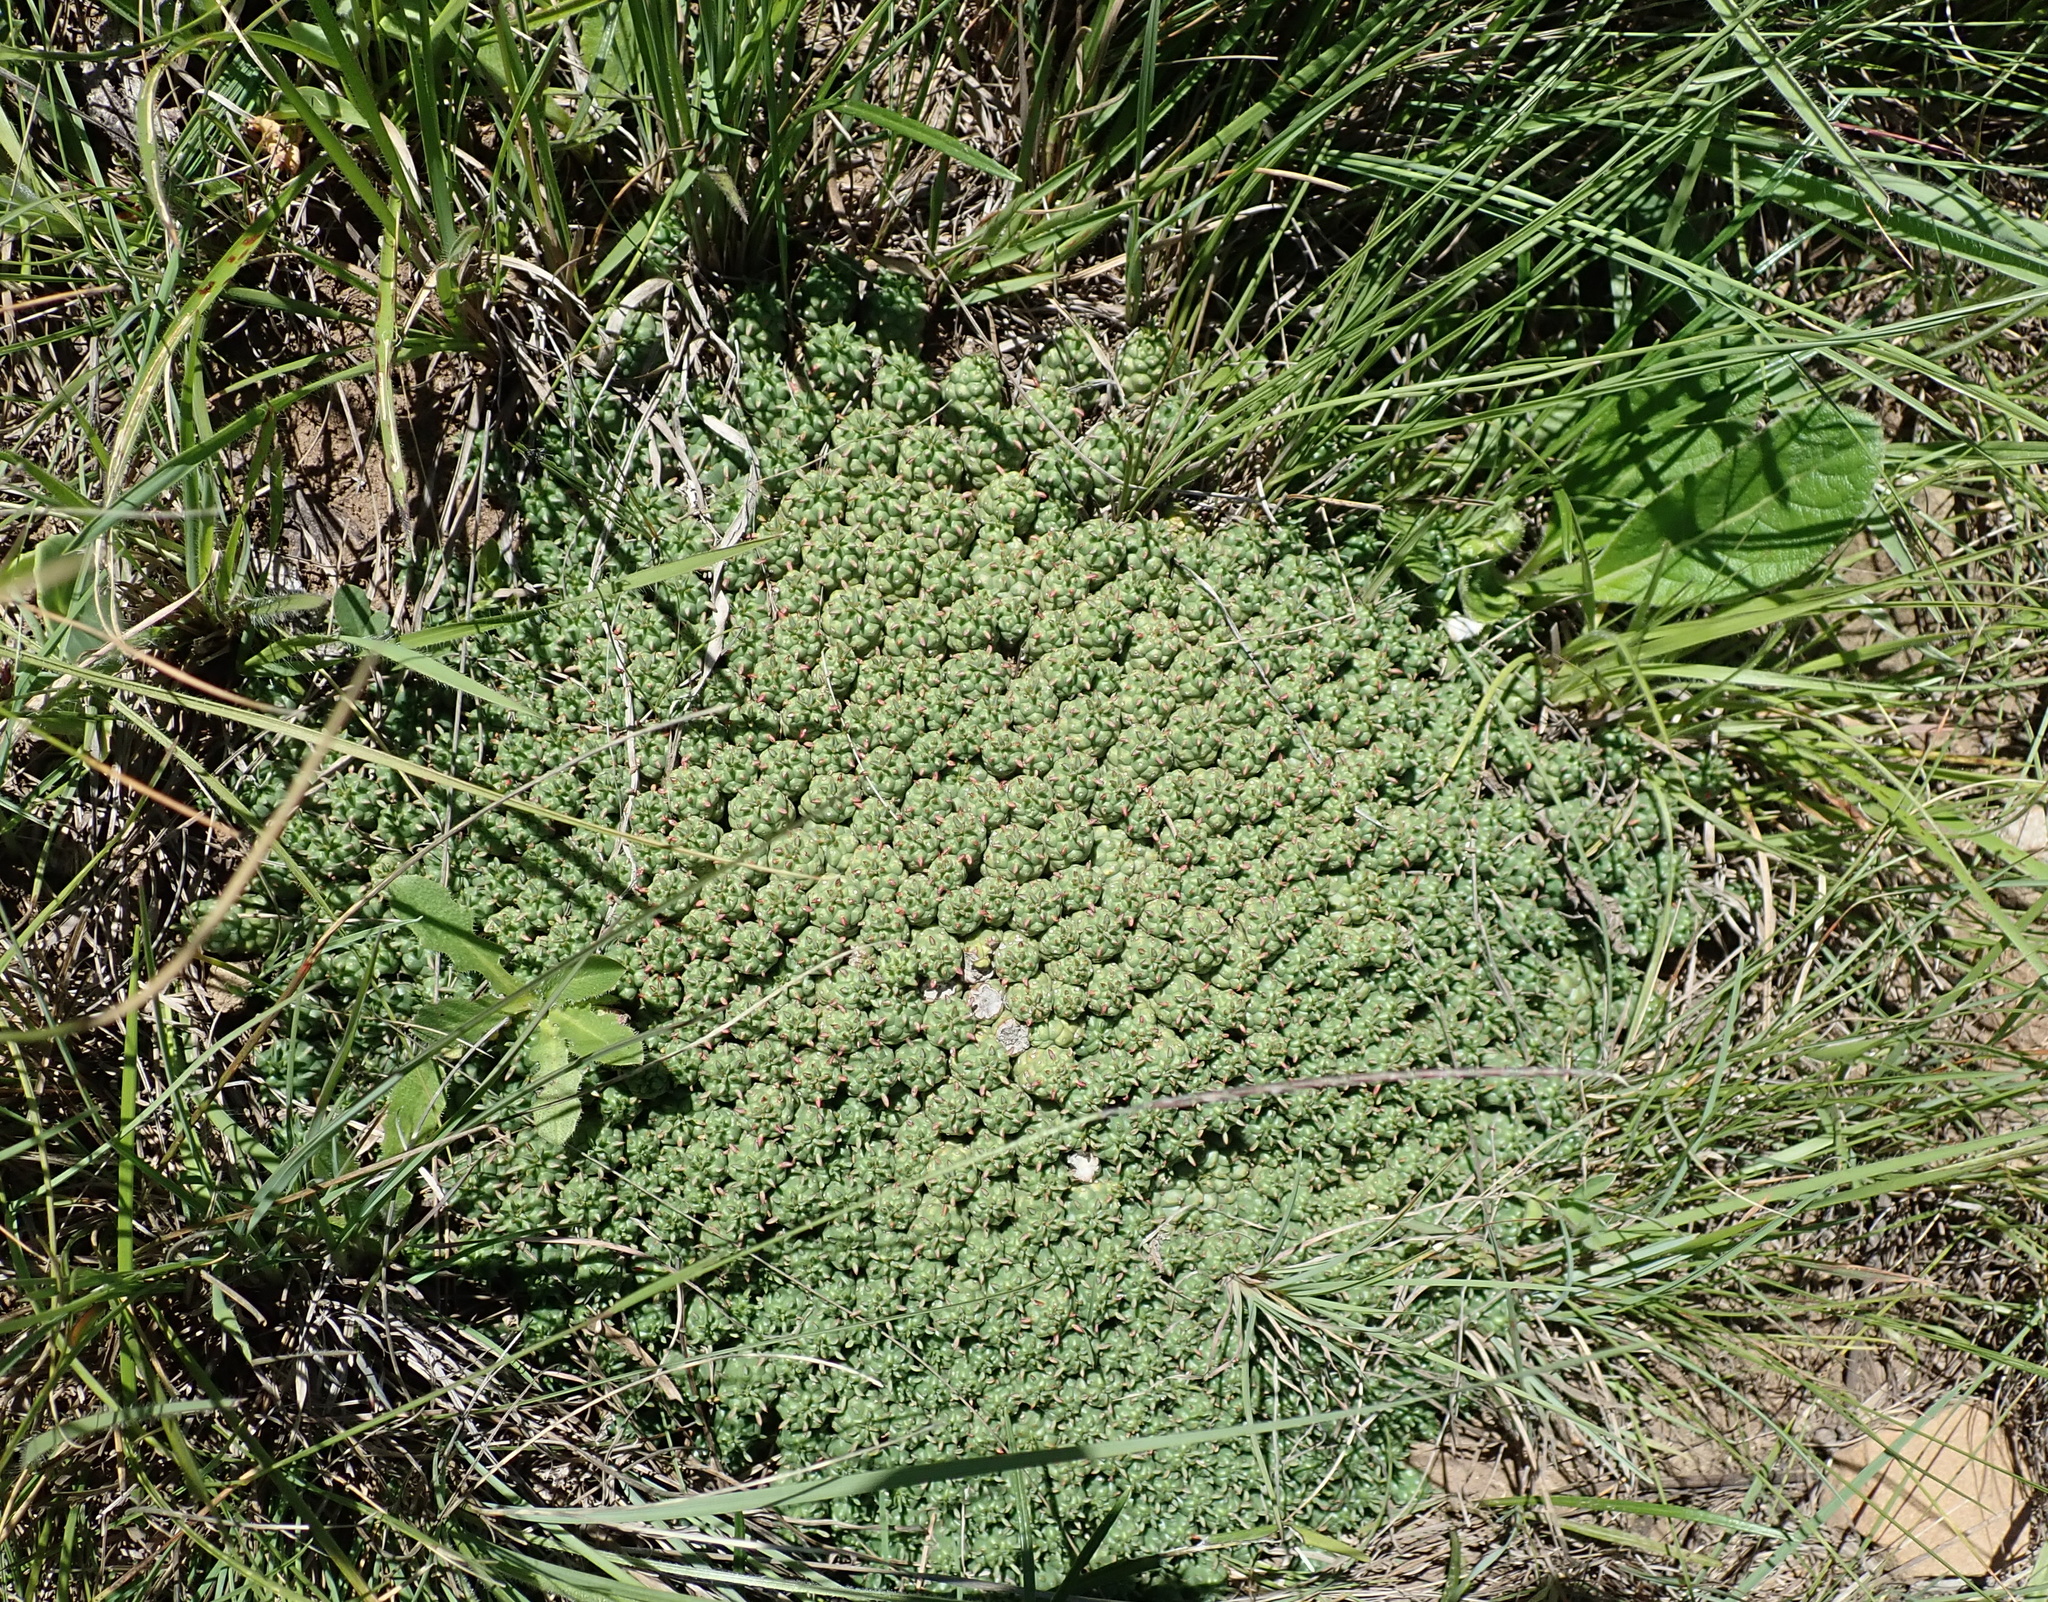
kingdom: Plantae
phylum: Tracheophyta
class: Magnoliopsida
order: Malpighiales
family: Euphorbiaceae
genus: Euphorbia
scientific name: Euphorbia clavarioides
